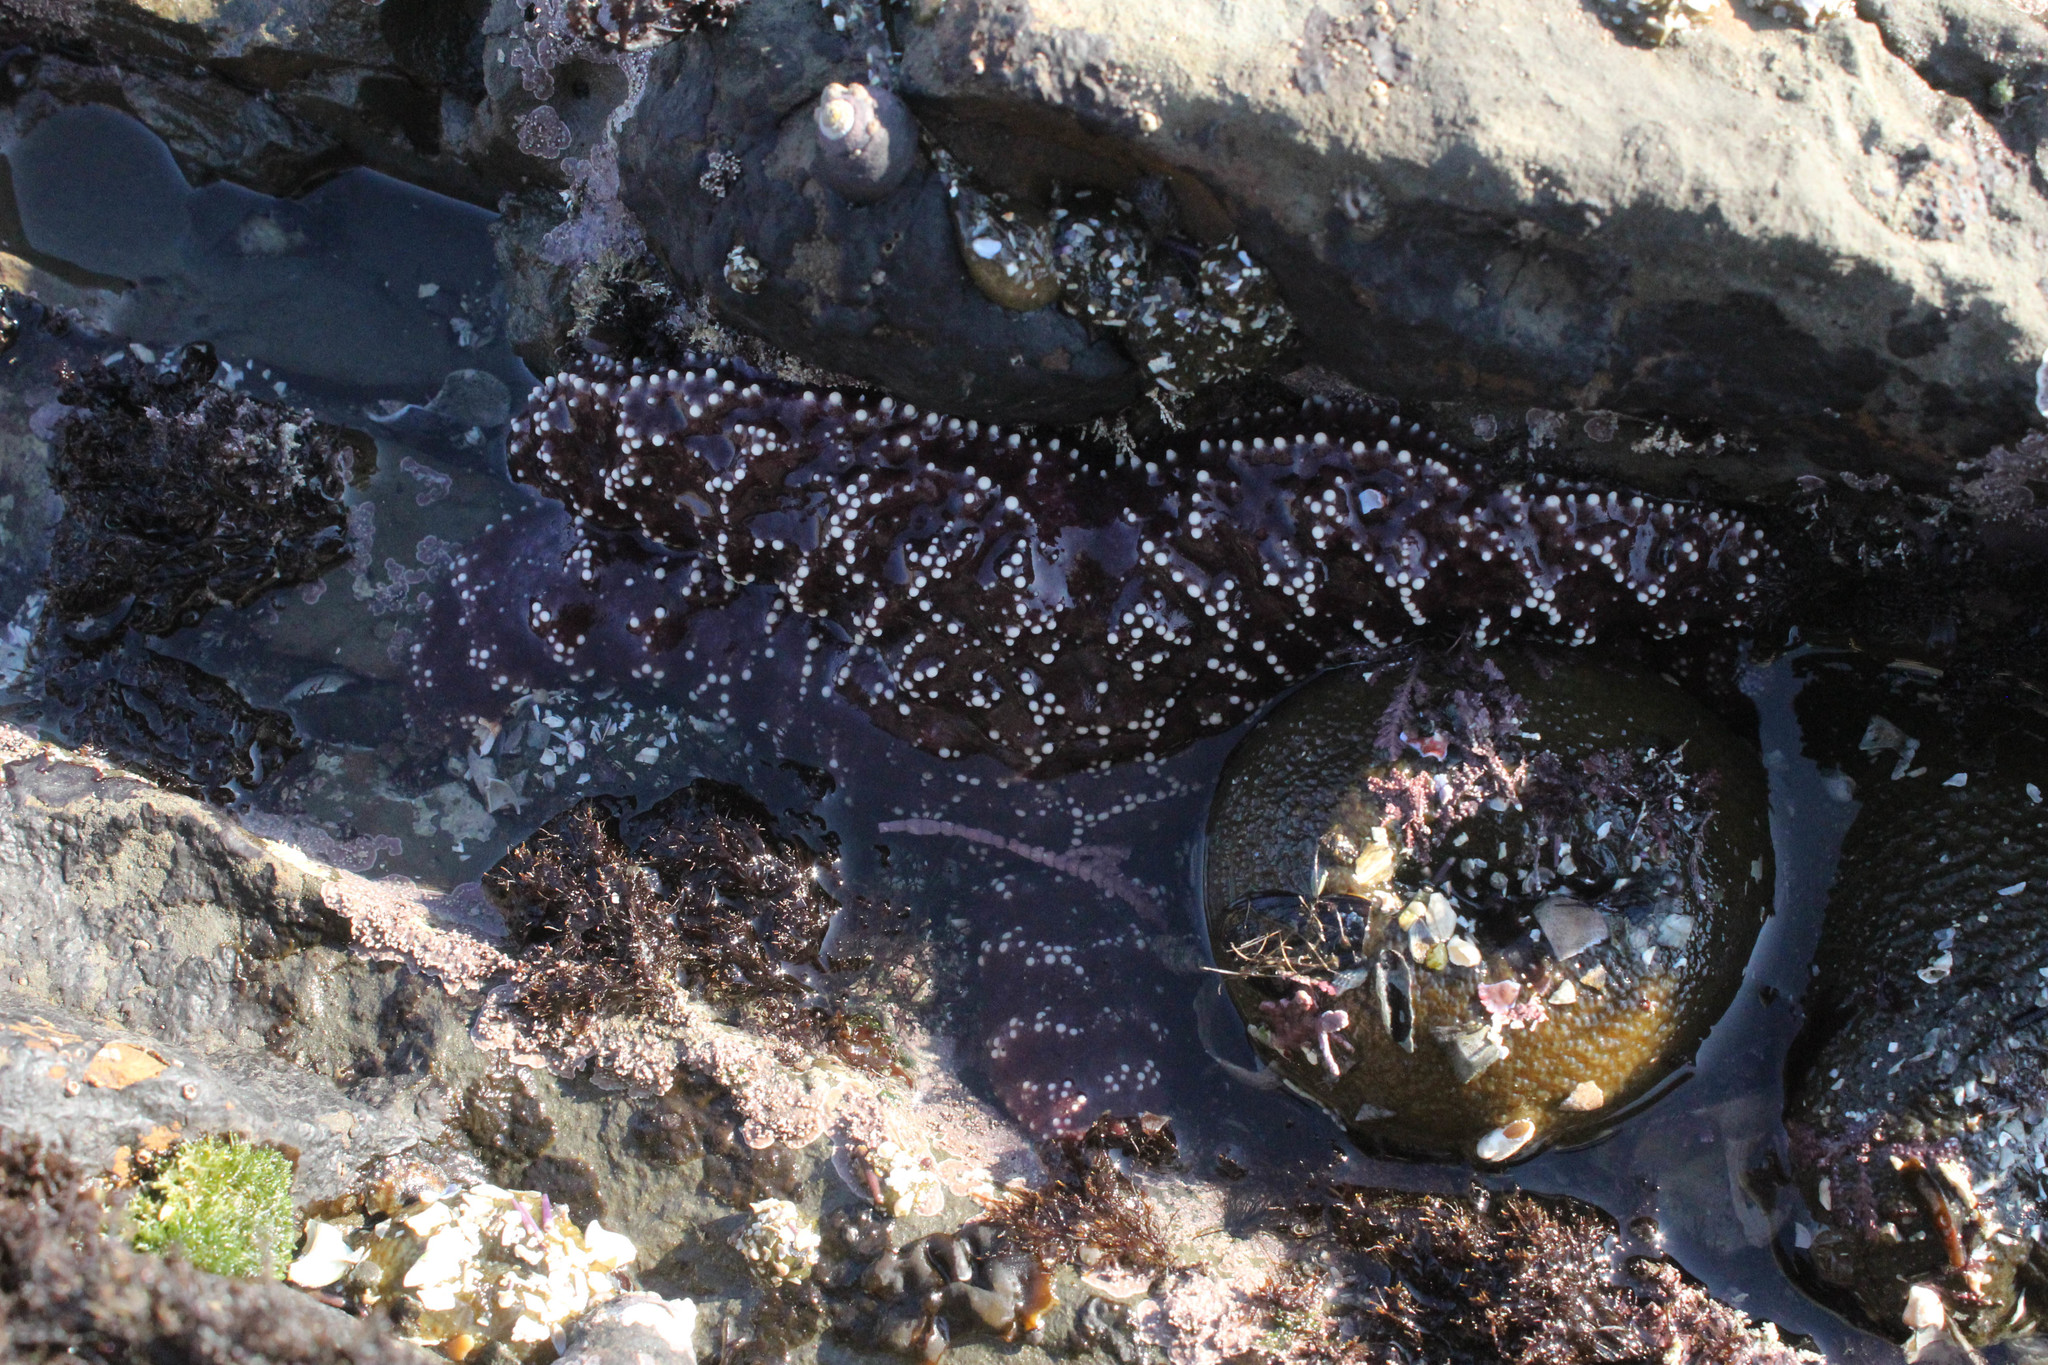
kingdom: Animalia
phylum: Echinodermata
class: Asteroidea
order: Forcipulatida
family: Asteriidae
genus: Pisaster
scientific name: Pisaster ochraceus
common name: Ochre stars
